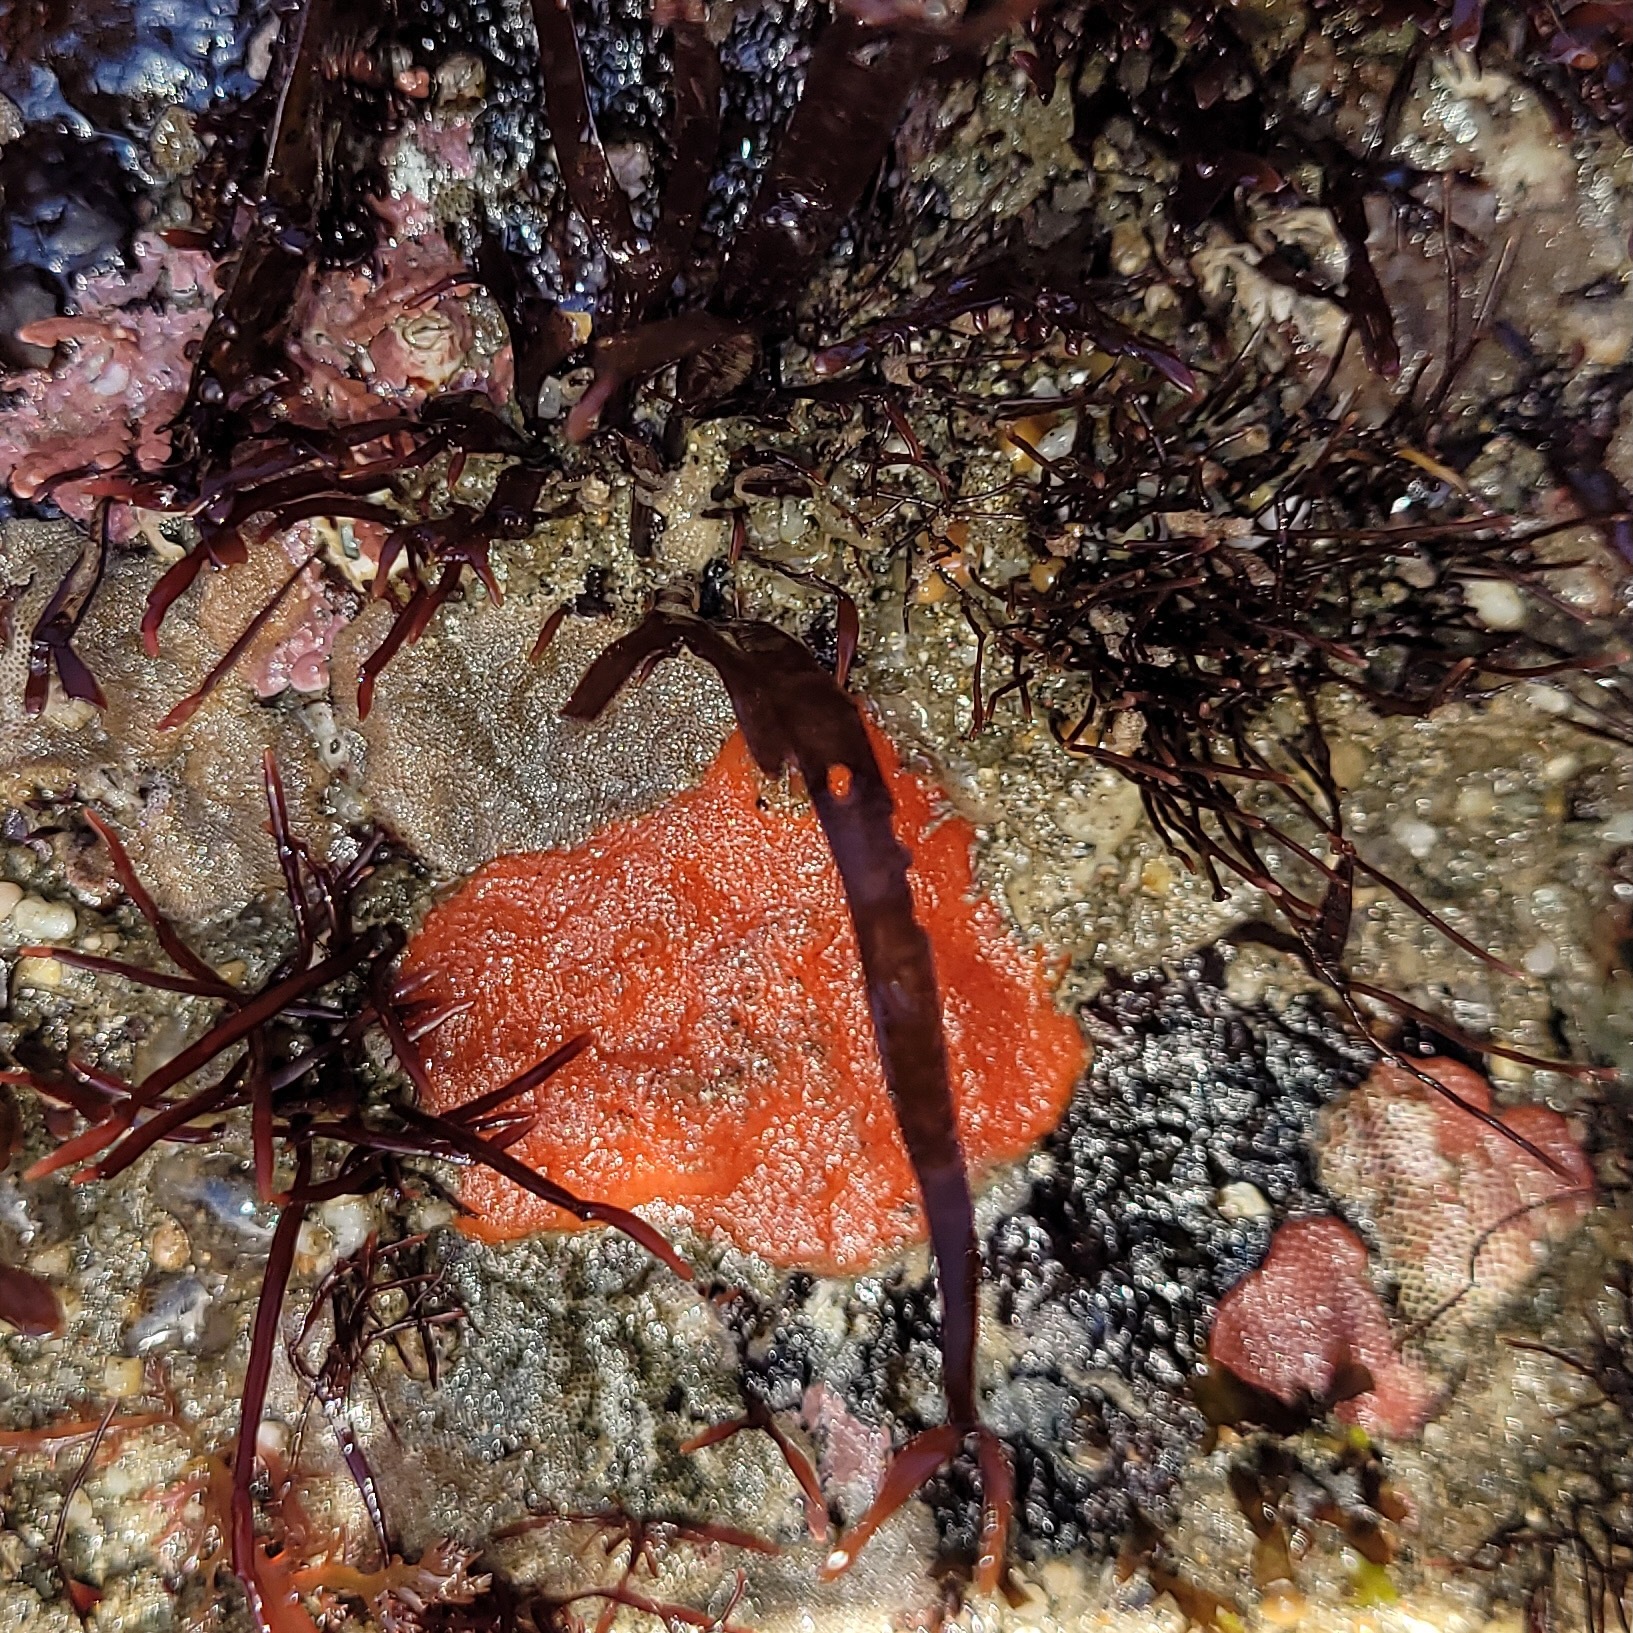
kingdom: Animalia
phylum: Bryozoa
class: Gymnolaemata
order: Cheilostomatida
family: Eurystomellidae
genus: Integripelta
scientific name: Integripelta bilabiata
